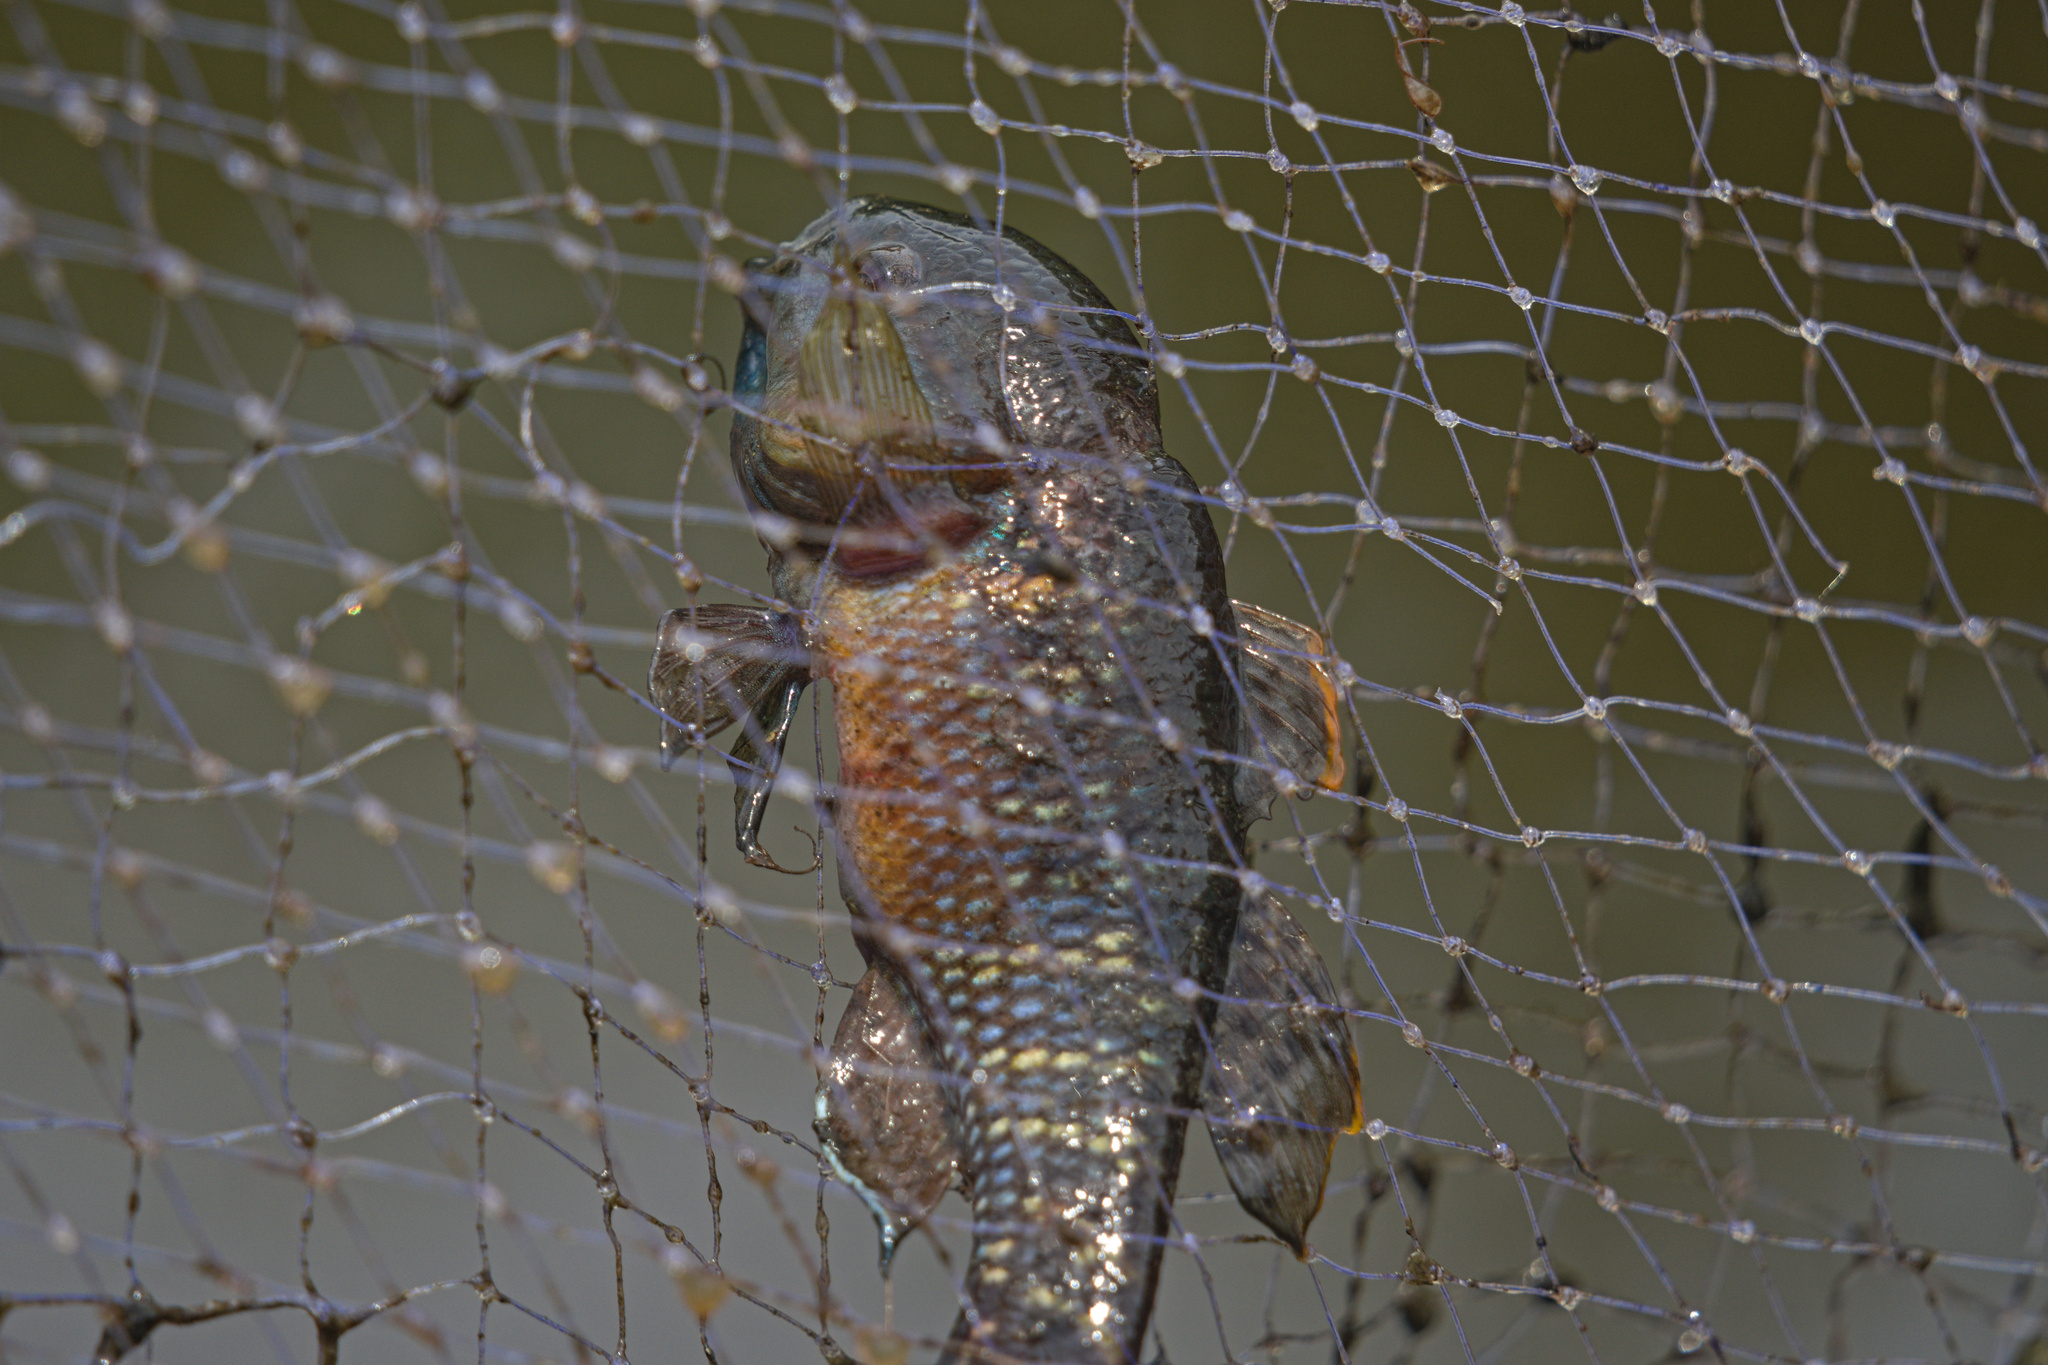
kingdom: Animalia
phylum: Chordata
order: Perciformes
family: Eleotridae
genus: Dormitator
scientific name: Dormitator latifrons
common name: Pacific fat sleeper
